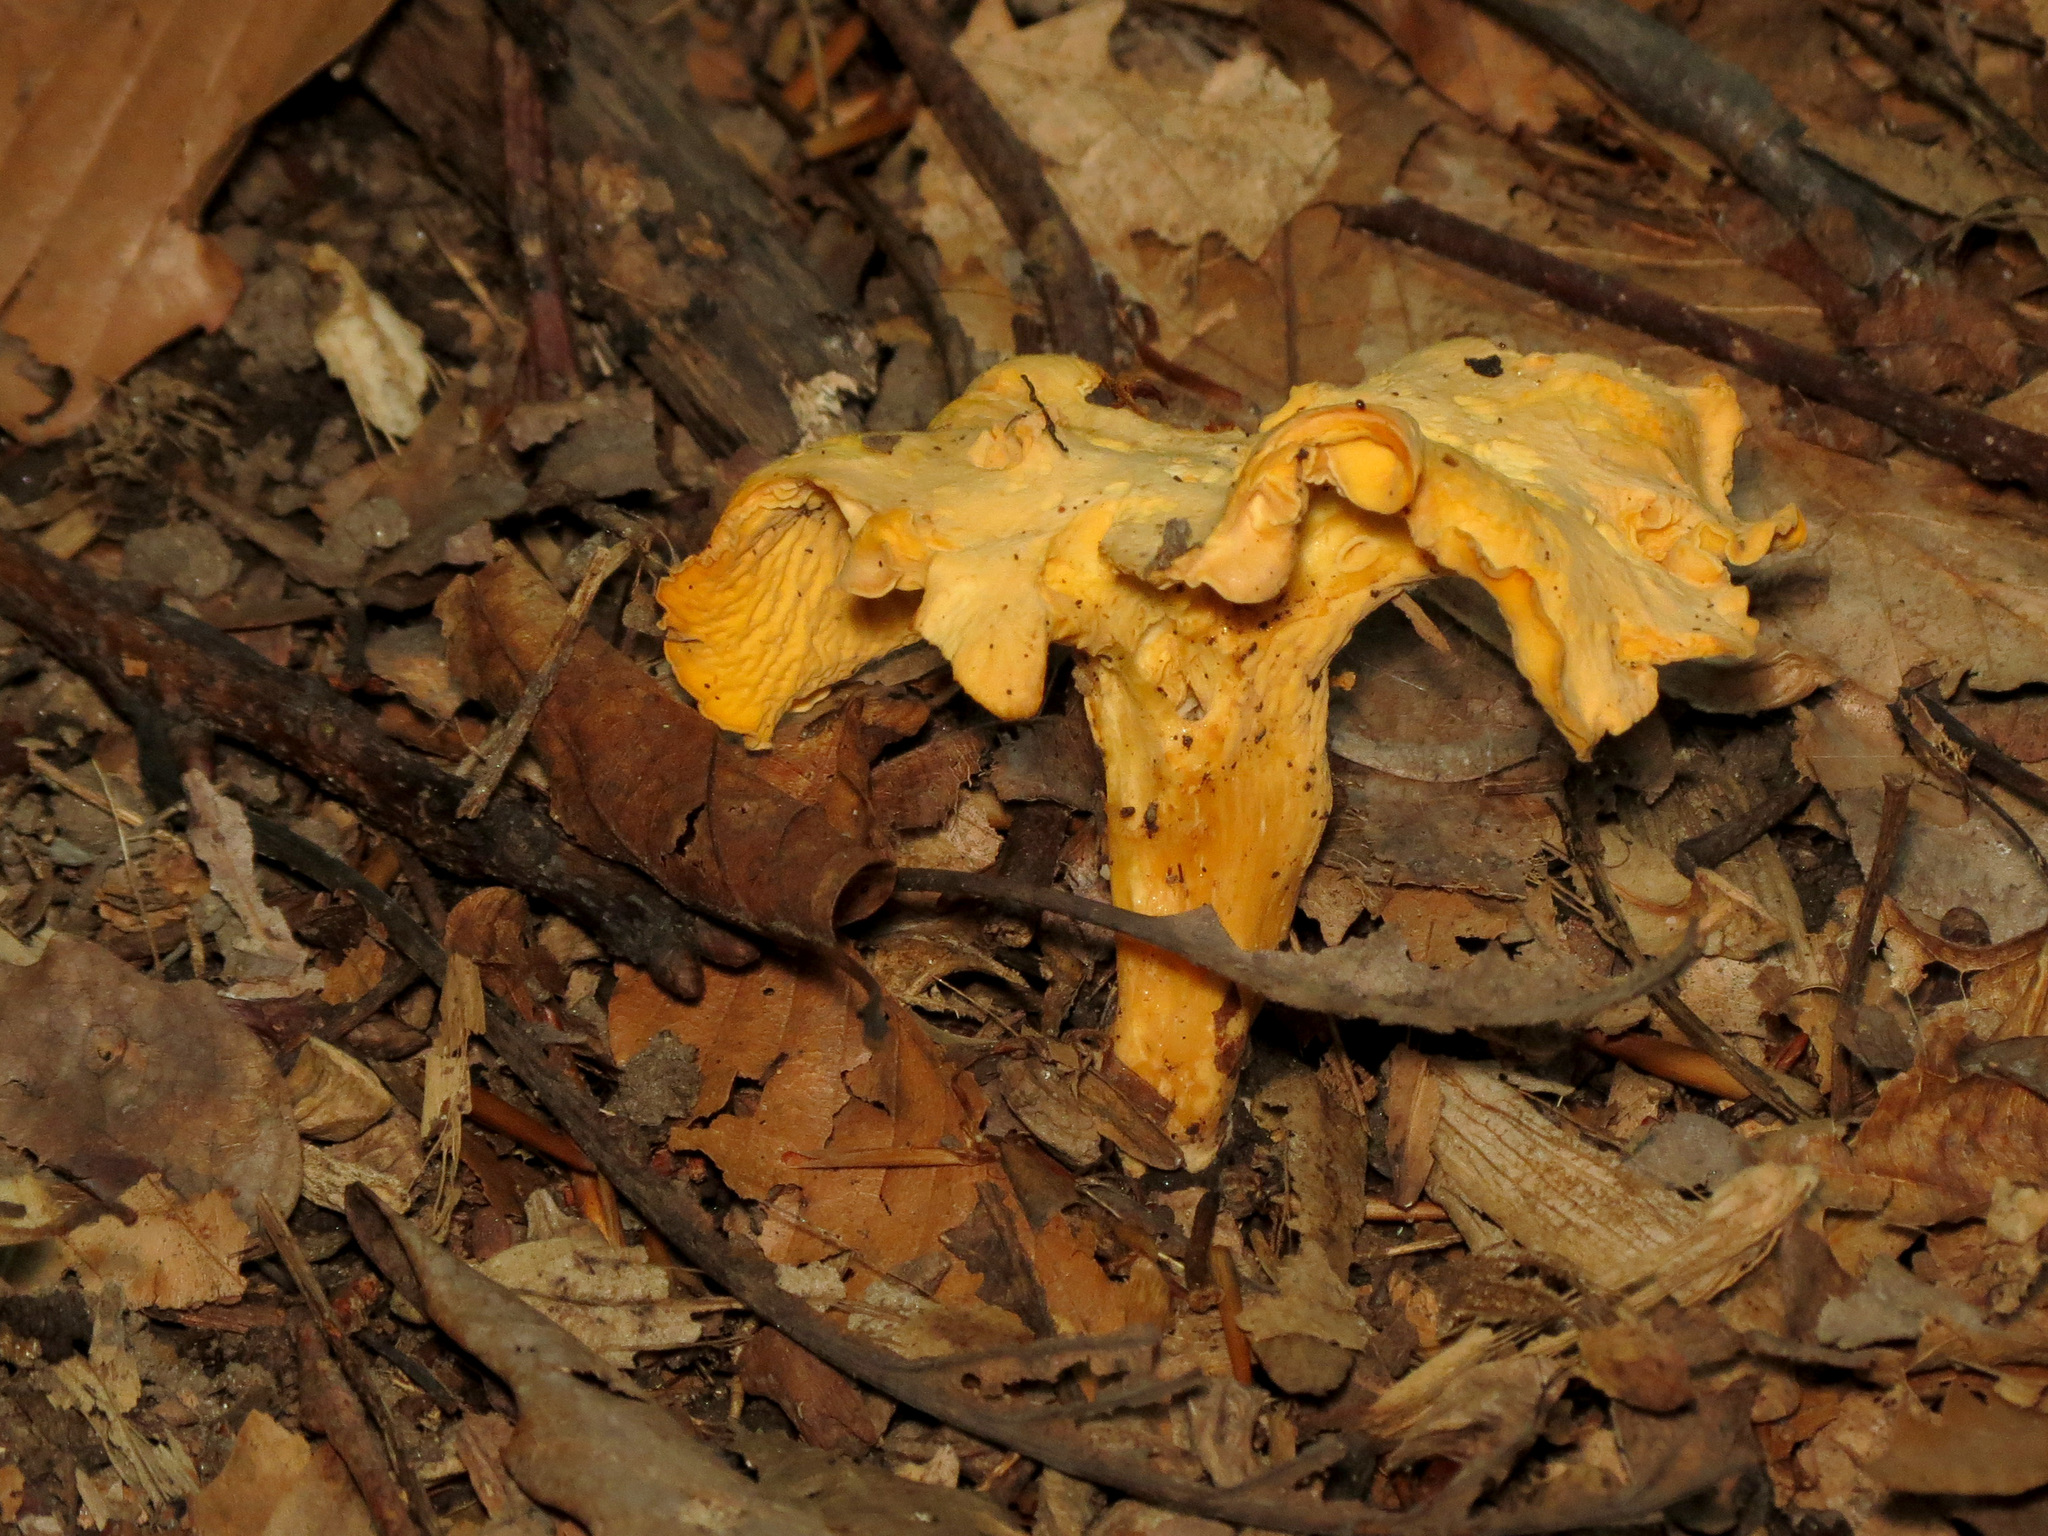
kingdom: Fungi
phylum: Basidiomycota
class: Agaricomycetes
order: Cantharellales
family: Hydnaceae
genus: Cantharellus
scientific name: Cantharellus lateritius
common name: Smooth chanterelle
